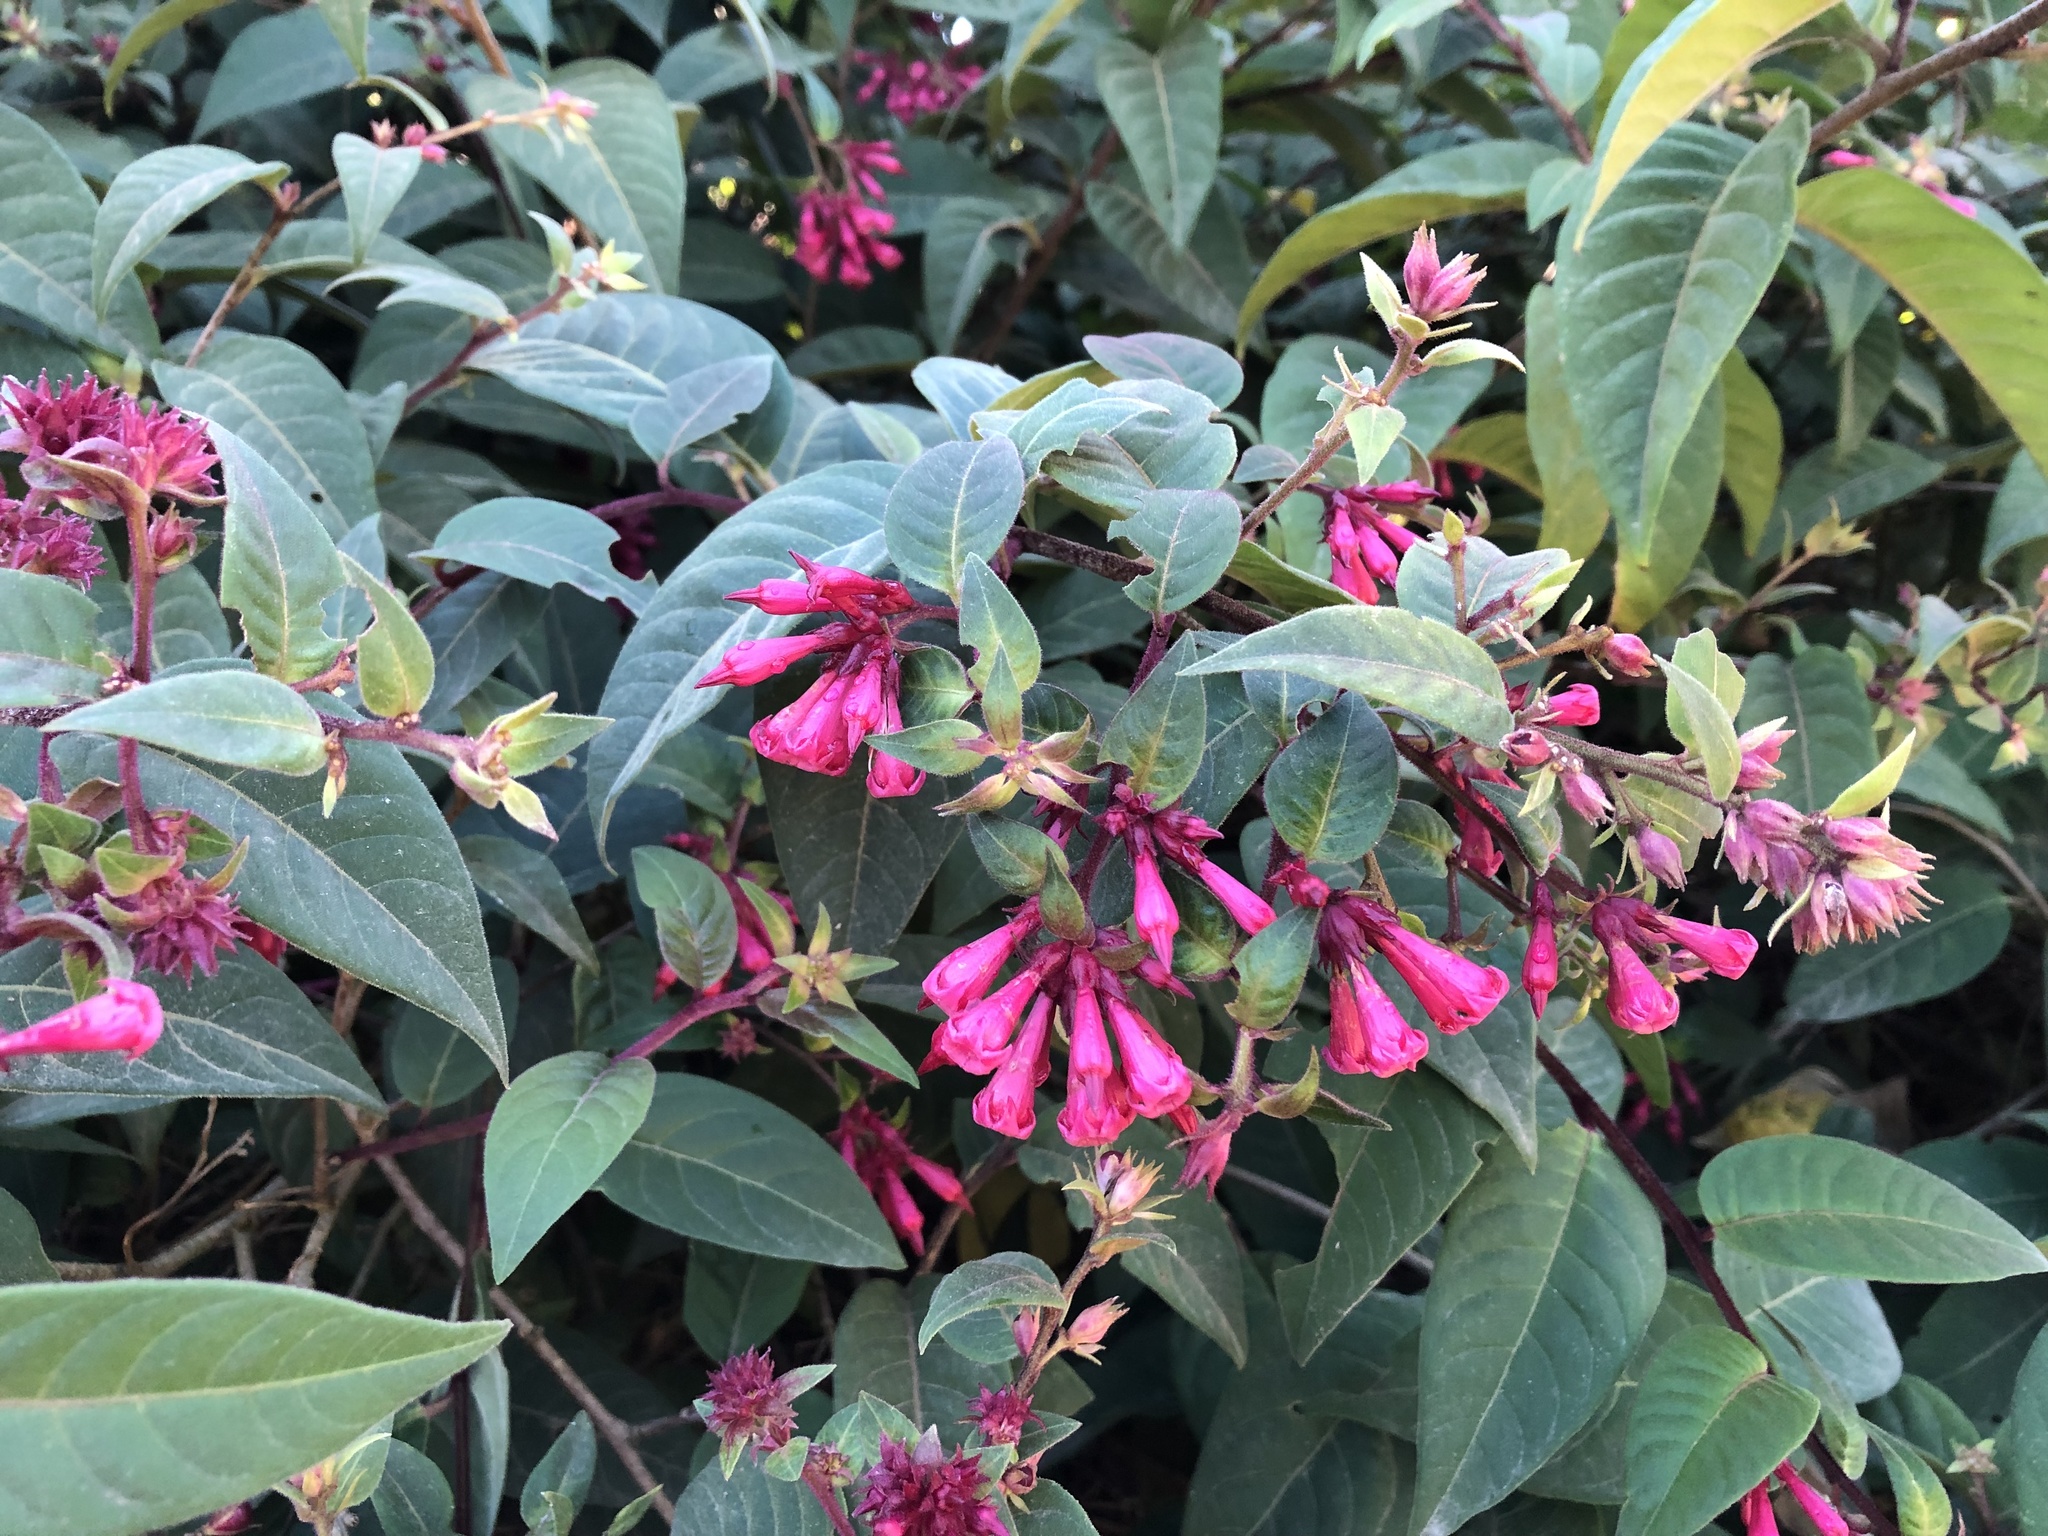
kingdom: Plantae
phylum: Tracheophyta
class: Magnoliopsida
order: Solanales
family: Solanaceae
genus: Cestrum
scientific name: Cestrum elegans
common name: Crimson cestrum
